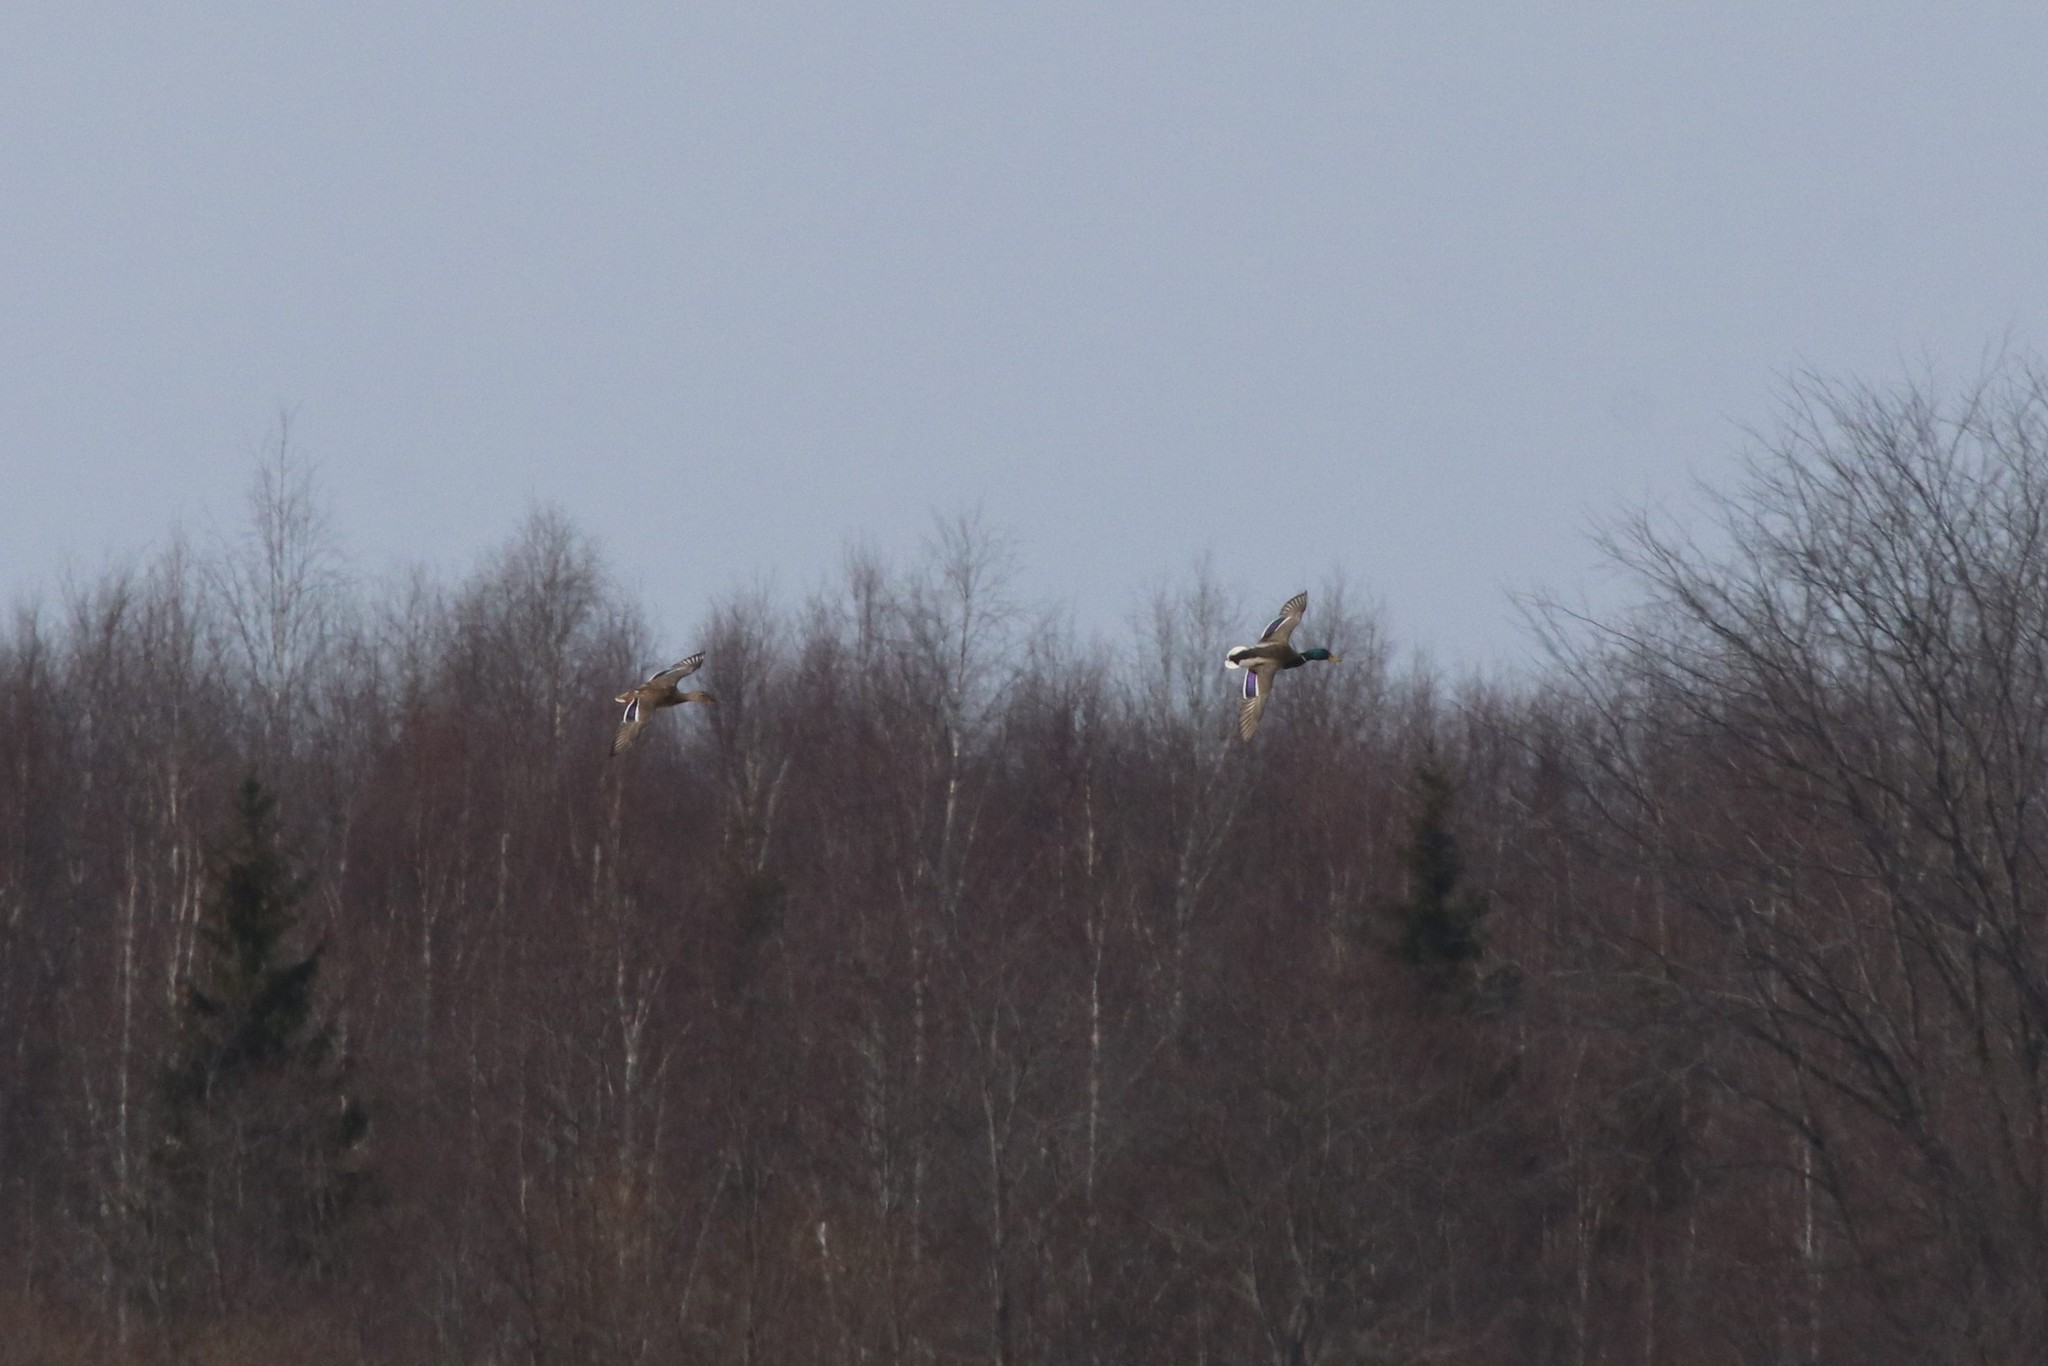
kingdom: Animalia
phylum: Chordata
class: Aves
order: Anseriformes
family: Anatidae
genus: Anas
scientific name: Anas platyrhynchos
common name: Mallard
